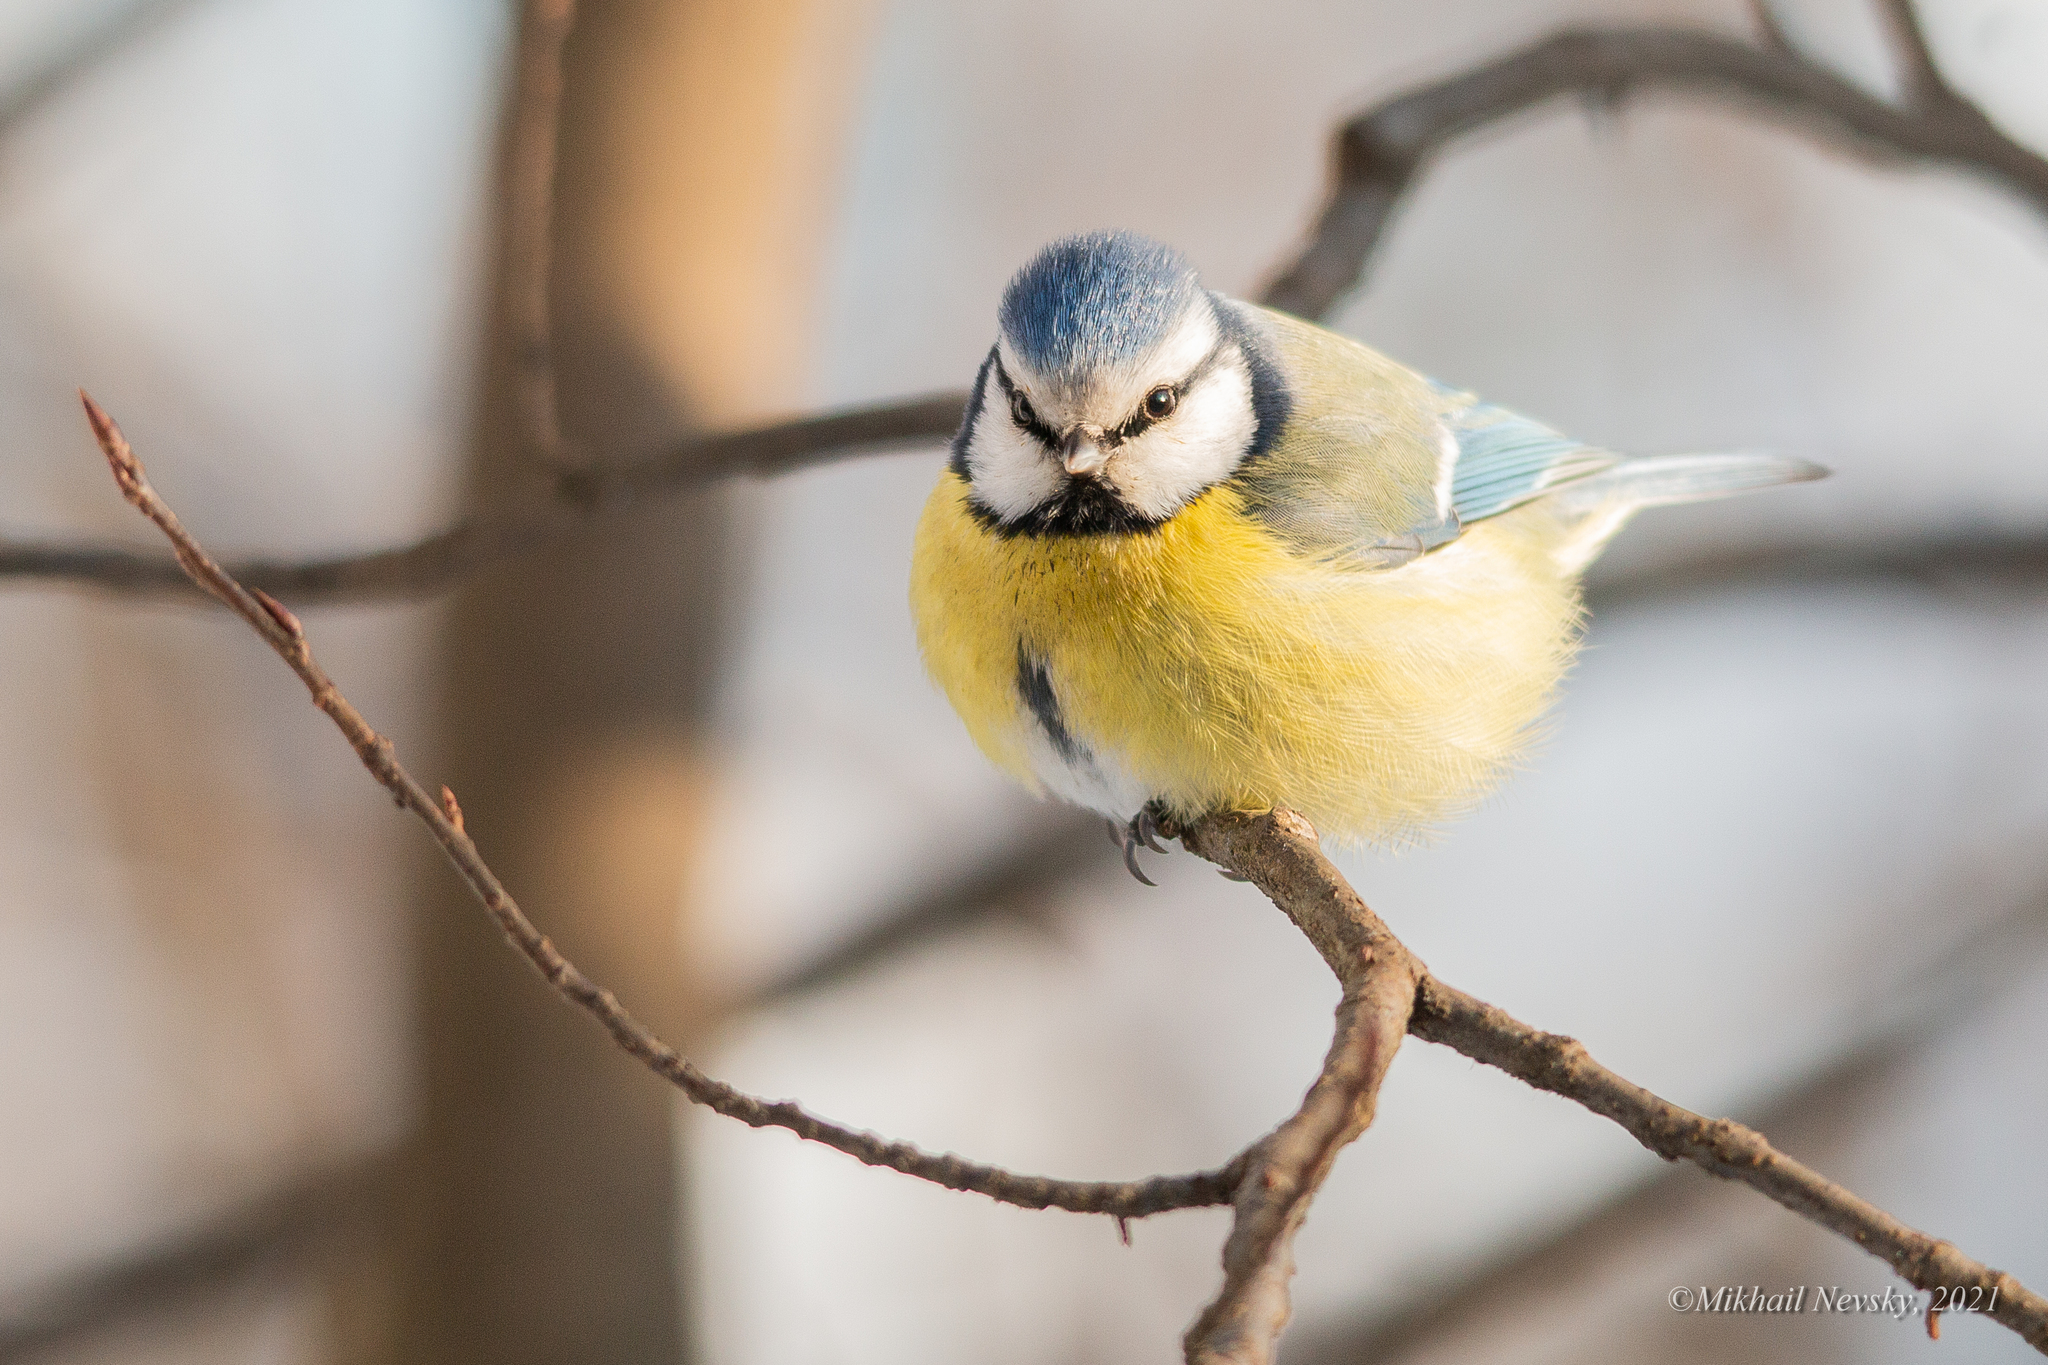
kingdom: Animalia
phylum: Chordata
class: Aves
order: Passeriformes
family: Paridae
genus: Cyanistes
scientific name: Cyanistes caeruleus
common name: Eurasian blue tit
